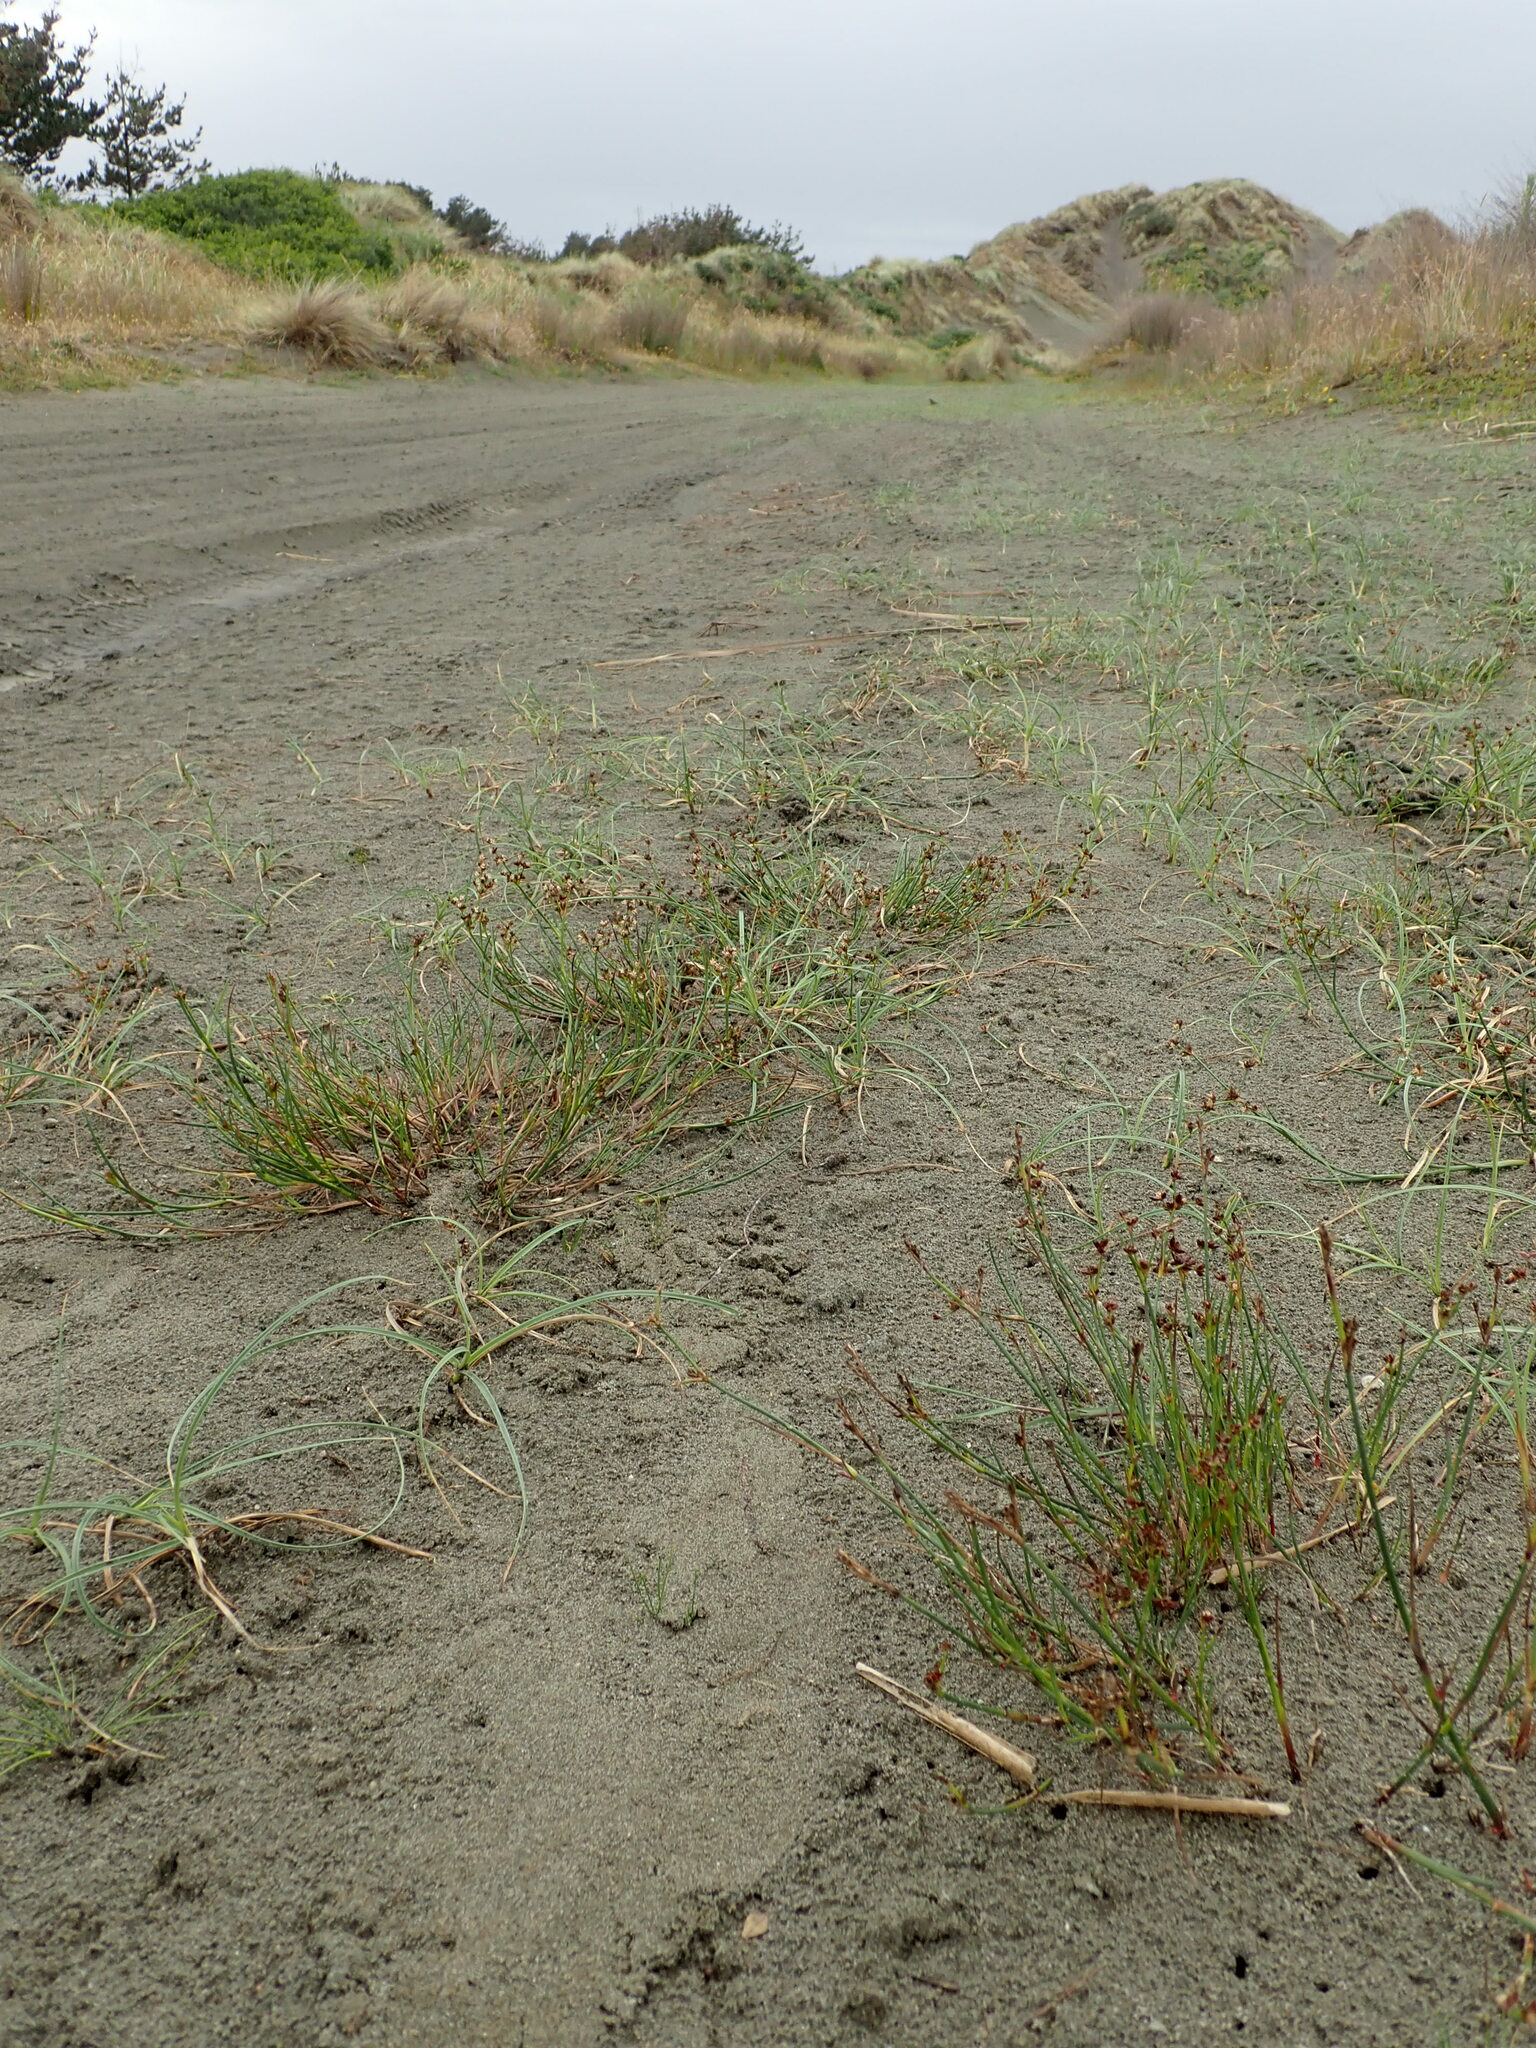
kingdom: Plantae
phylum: Tracheophyta
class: Liliopsida
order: Poales
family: Juncaceae
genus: Juncus
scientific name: Juncus articulatus
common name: Jointed rush
